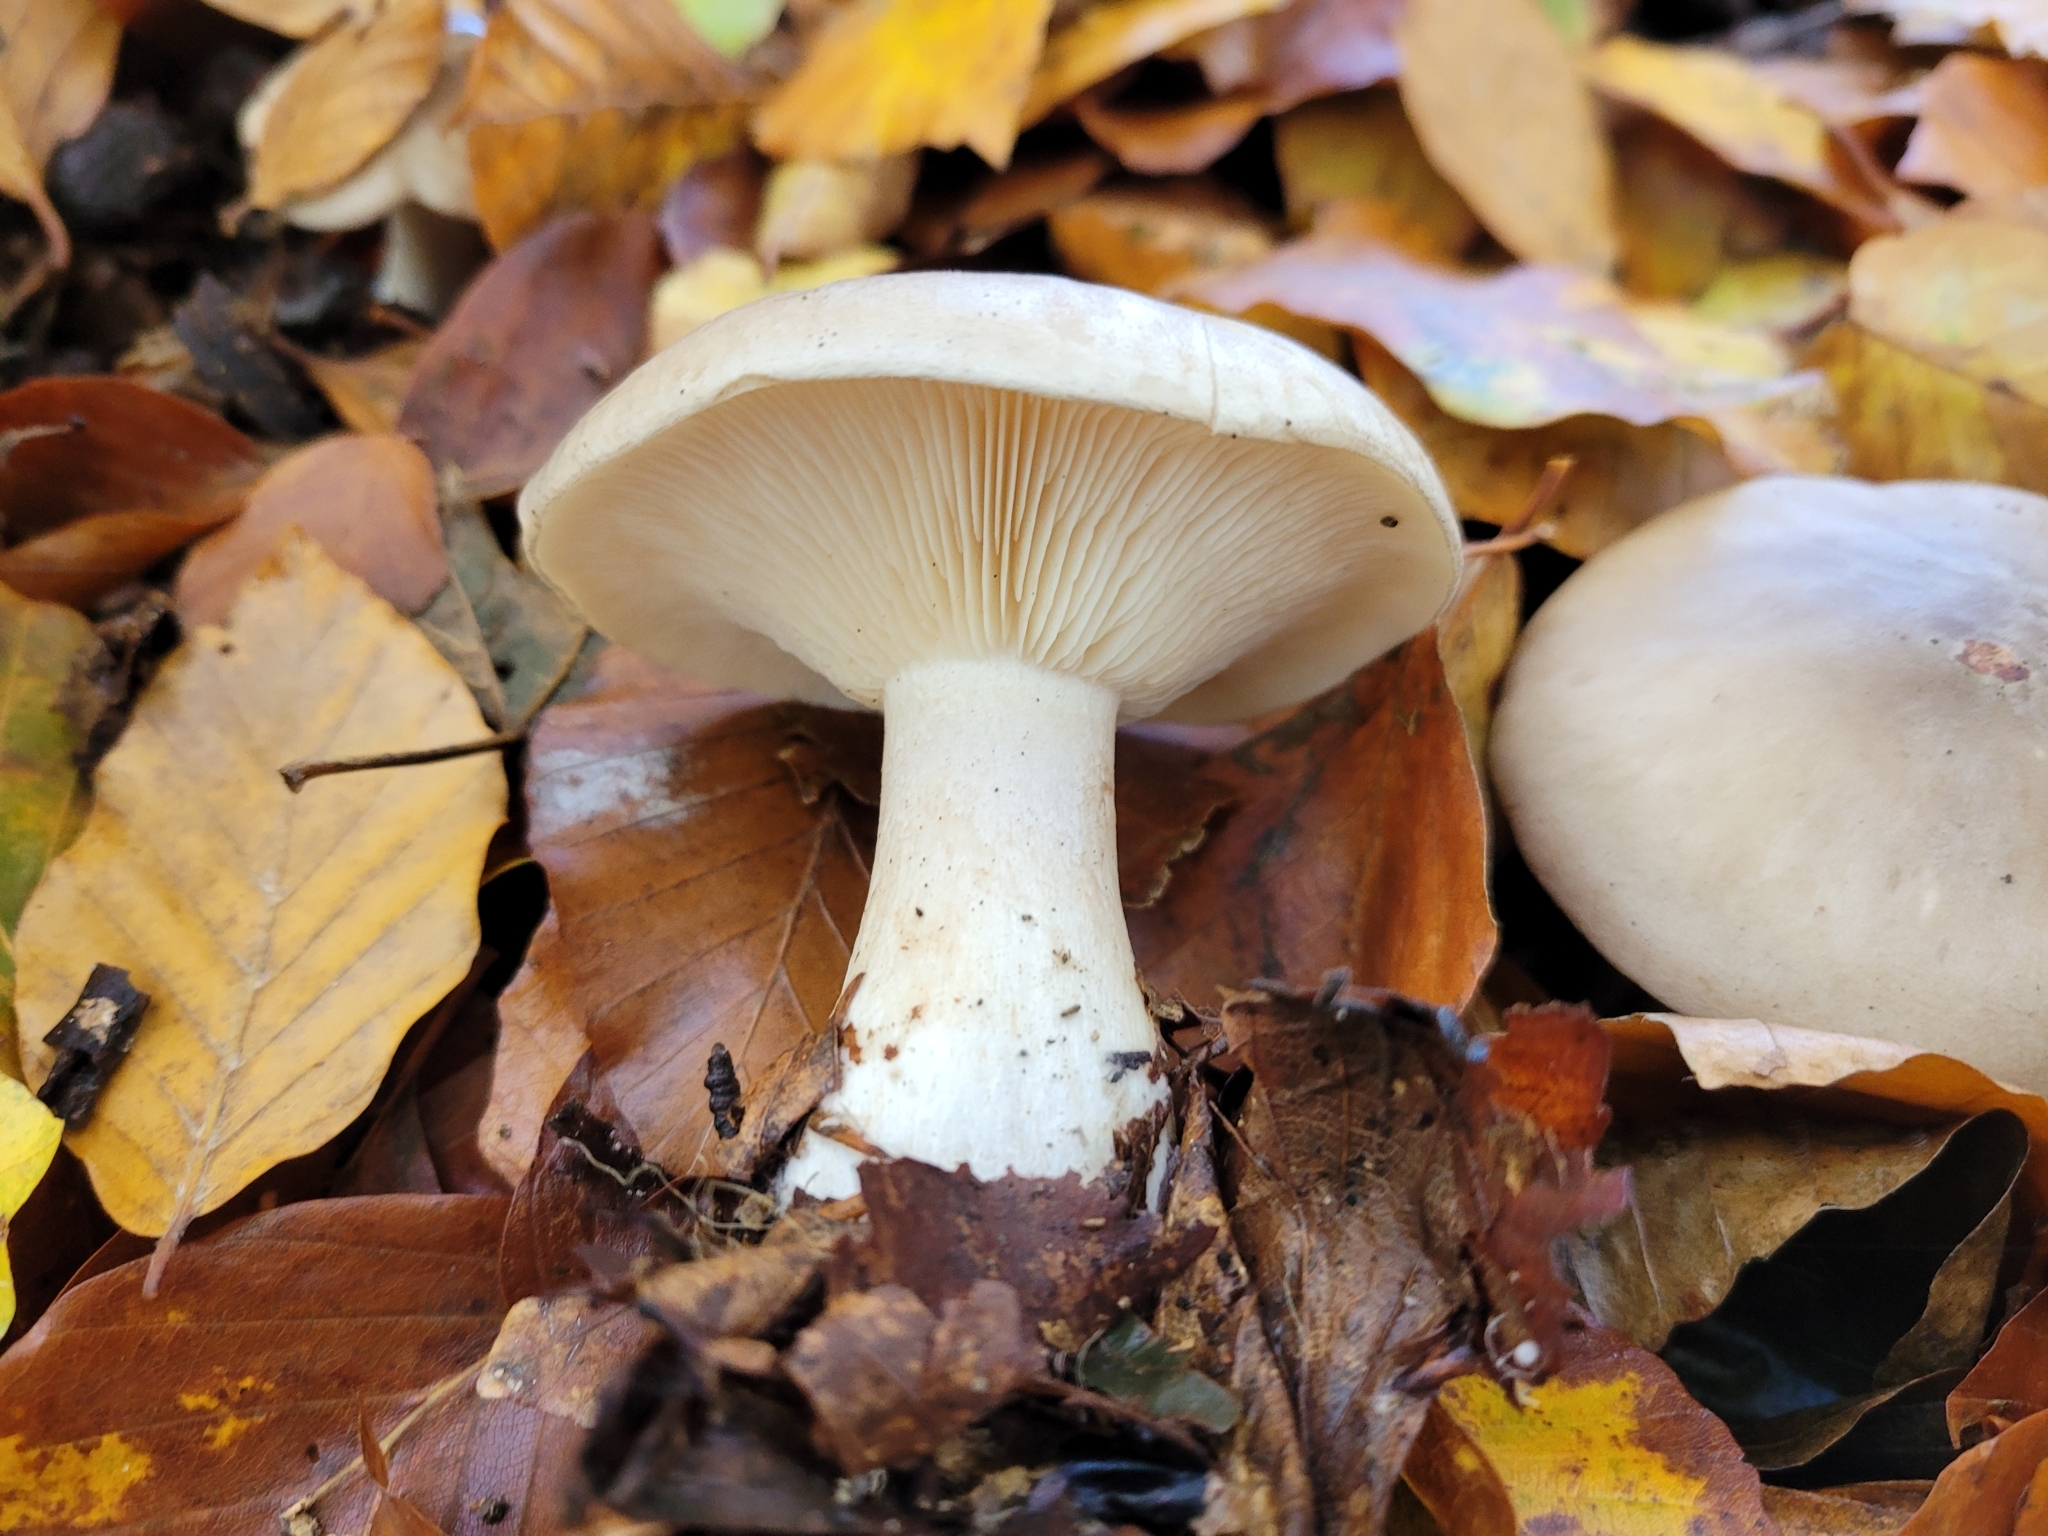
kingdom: Fungi
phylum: Basidiomycota
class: Agaricomycetes
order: Agaricales
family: Tricholomataceae
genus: Clitocybe
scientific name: Clitocybe nebularis
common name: Clouded agaric
